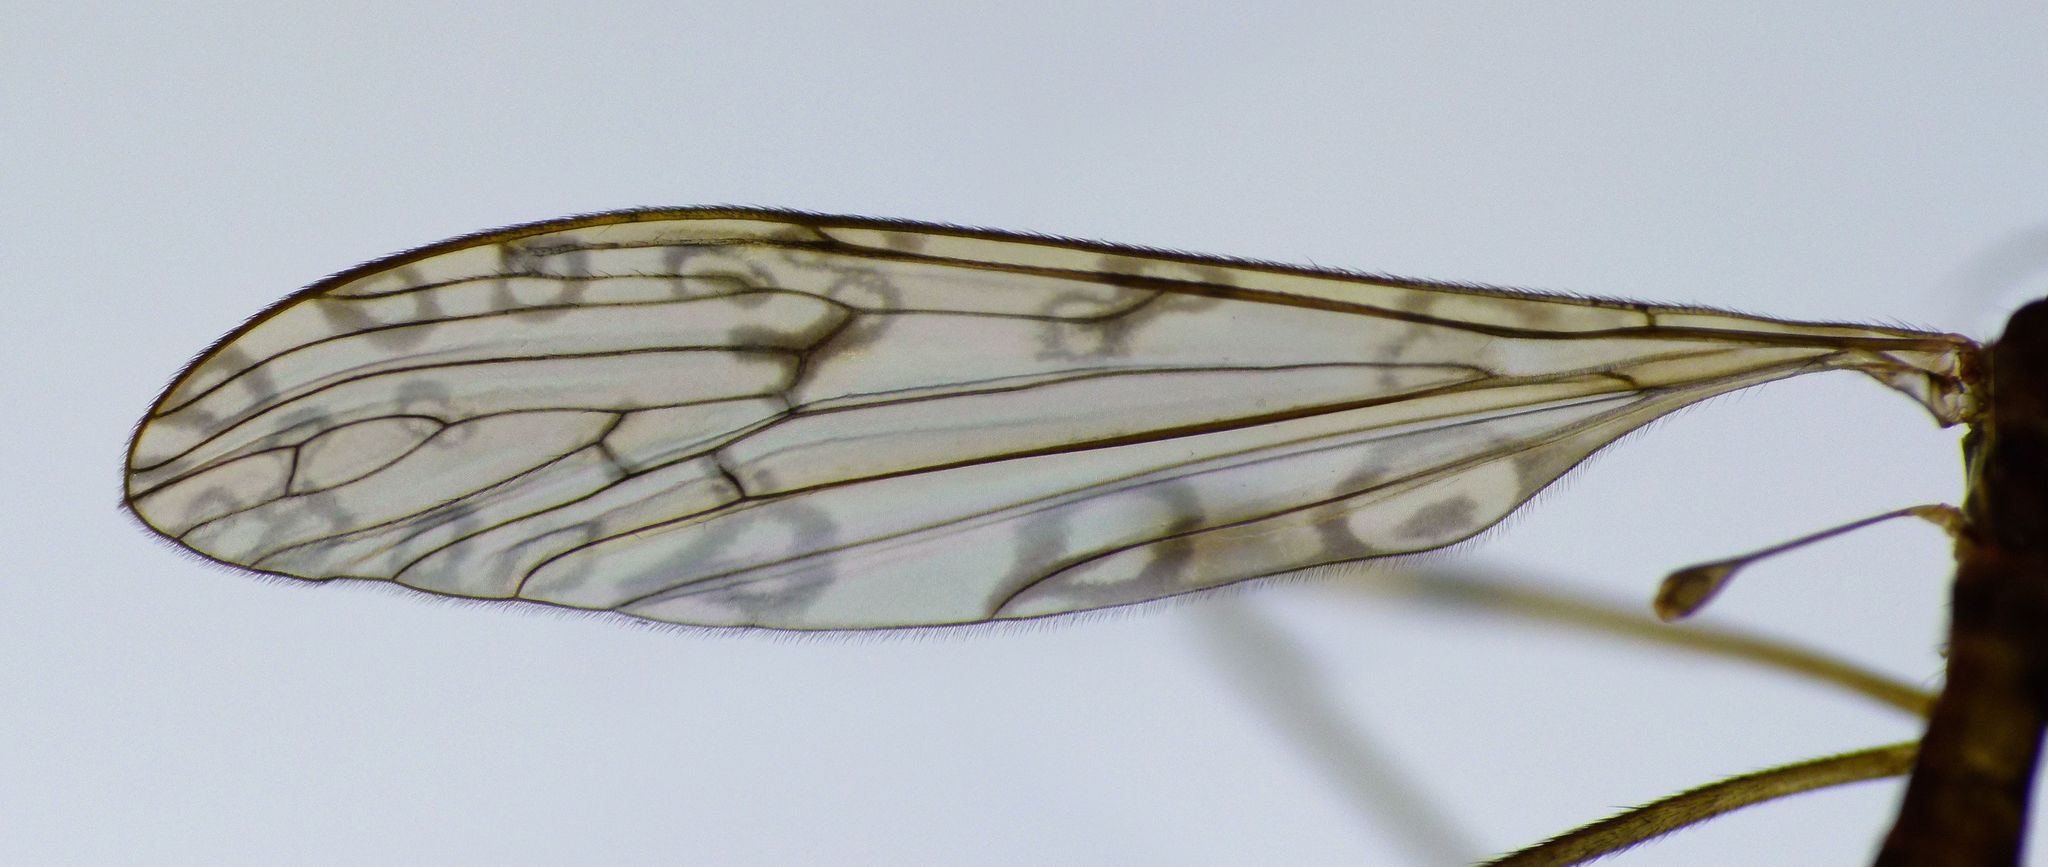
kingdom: Animalia
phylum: Arthropoda
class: Insecta
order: Diptera
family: Limoniidae
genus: Austrolimnophila
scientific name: Austrolimnophila stewartiae
